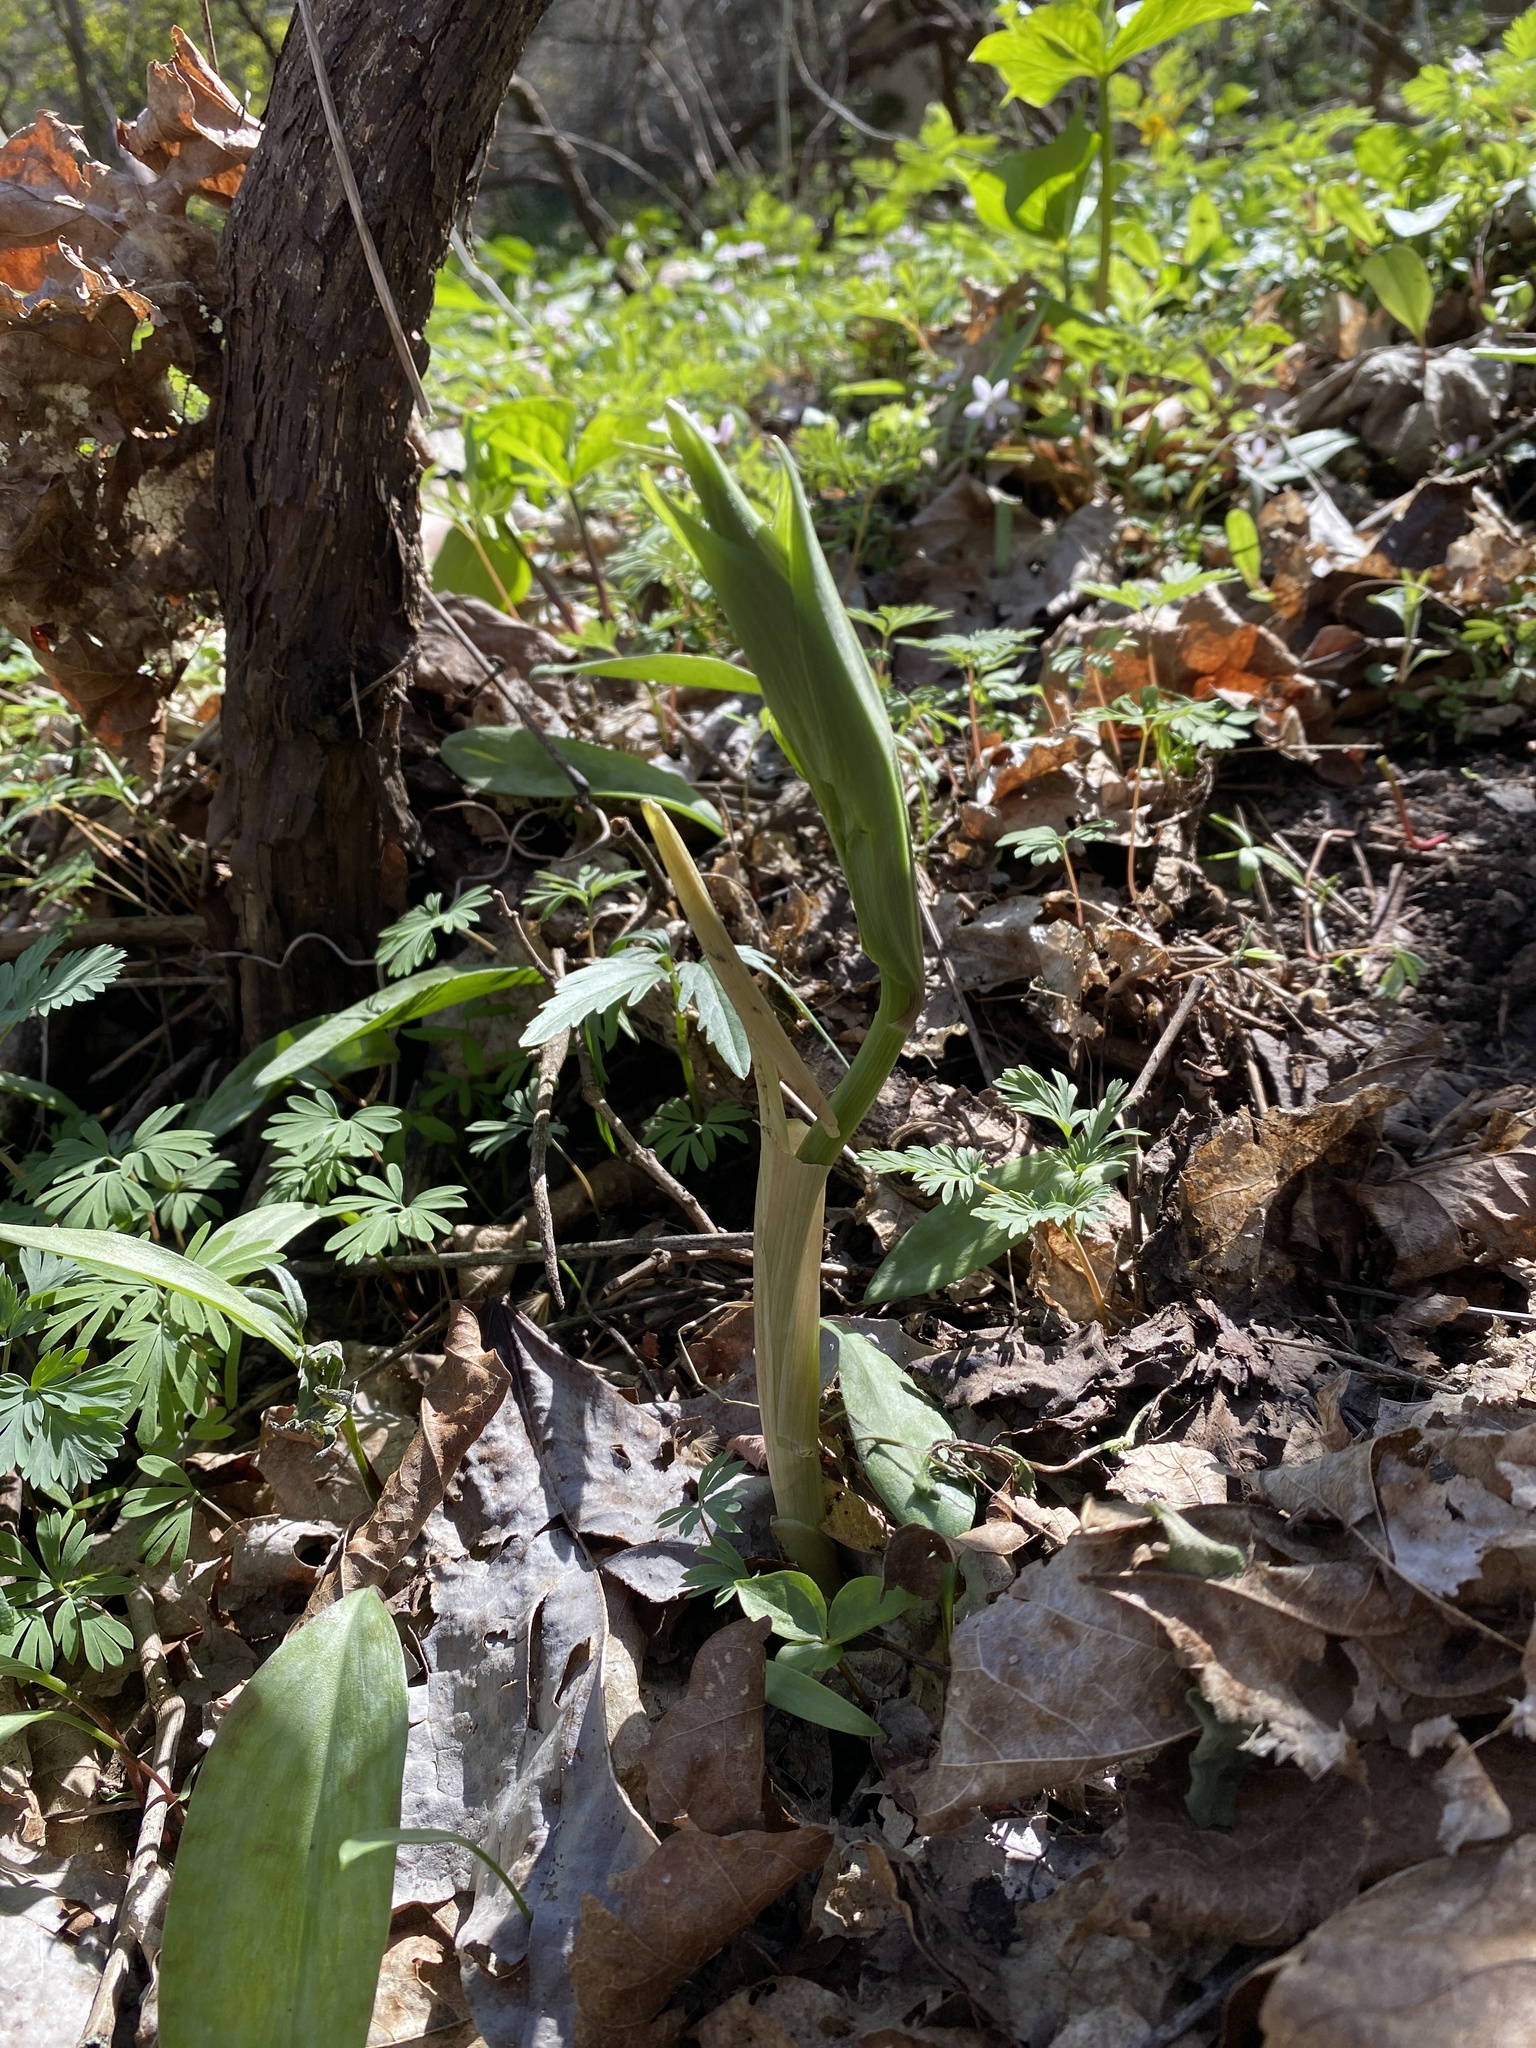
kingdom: Plantae
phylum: Tracheophyta
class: Liliopsida
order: Asparagales
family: Asparagaceae
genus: Maianthemum
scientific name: Maianthemum racemosum
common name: False spikenard
